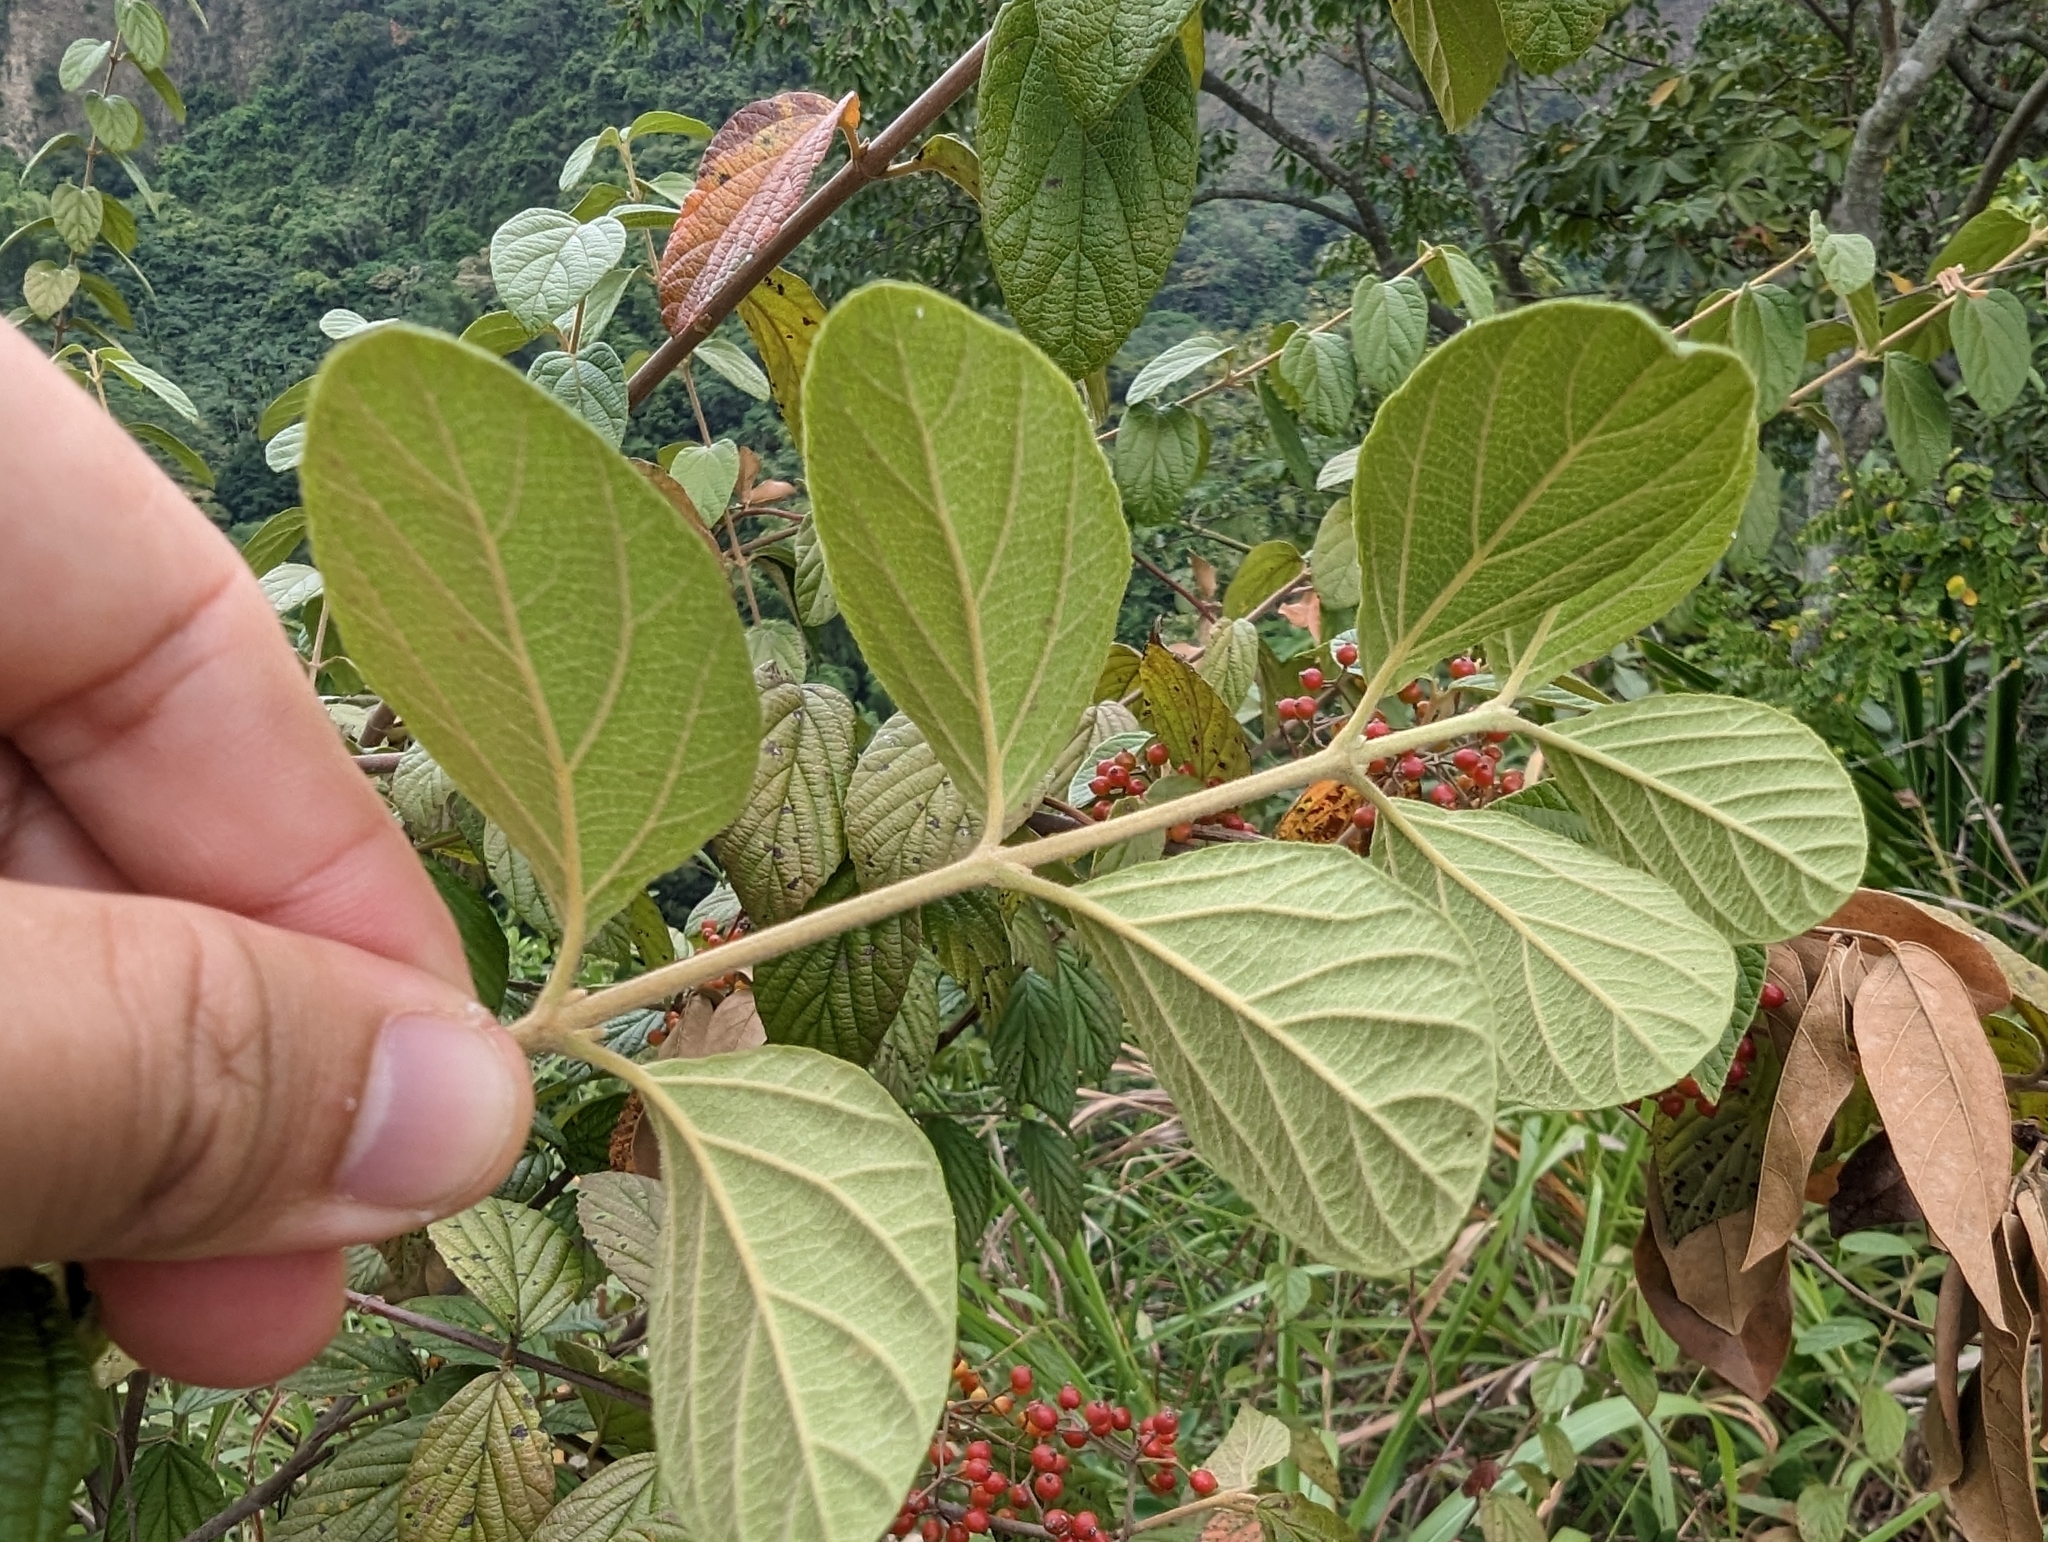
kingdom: Plantae
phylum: Tracheophyta
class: Magnoliopsida
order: Dipsacales
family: Viburnaceae
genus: Viburnum
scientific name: Viburnum luzonicum
